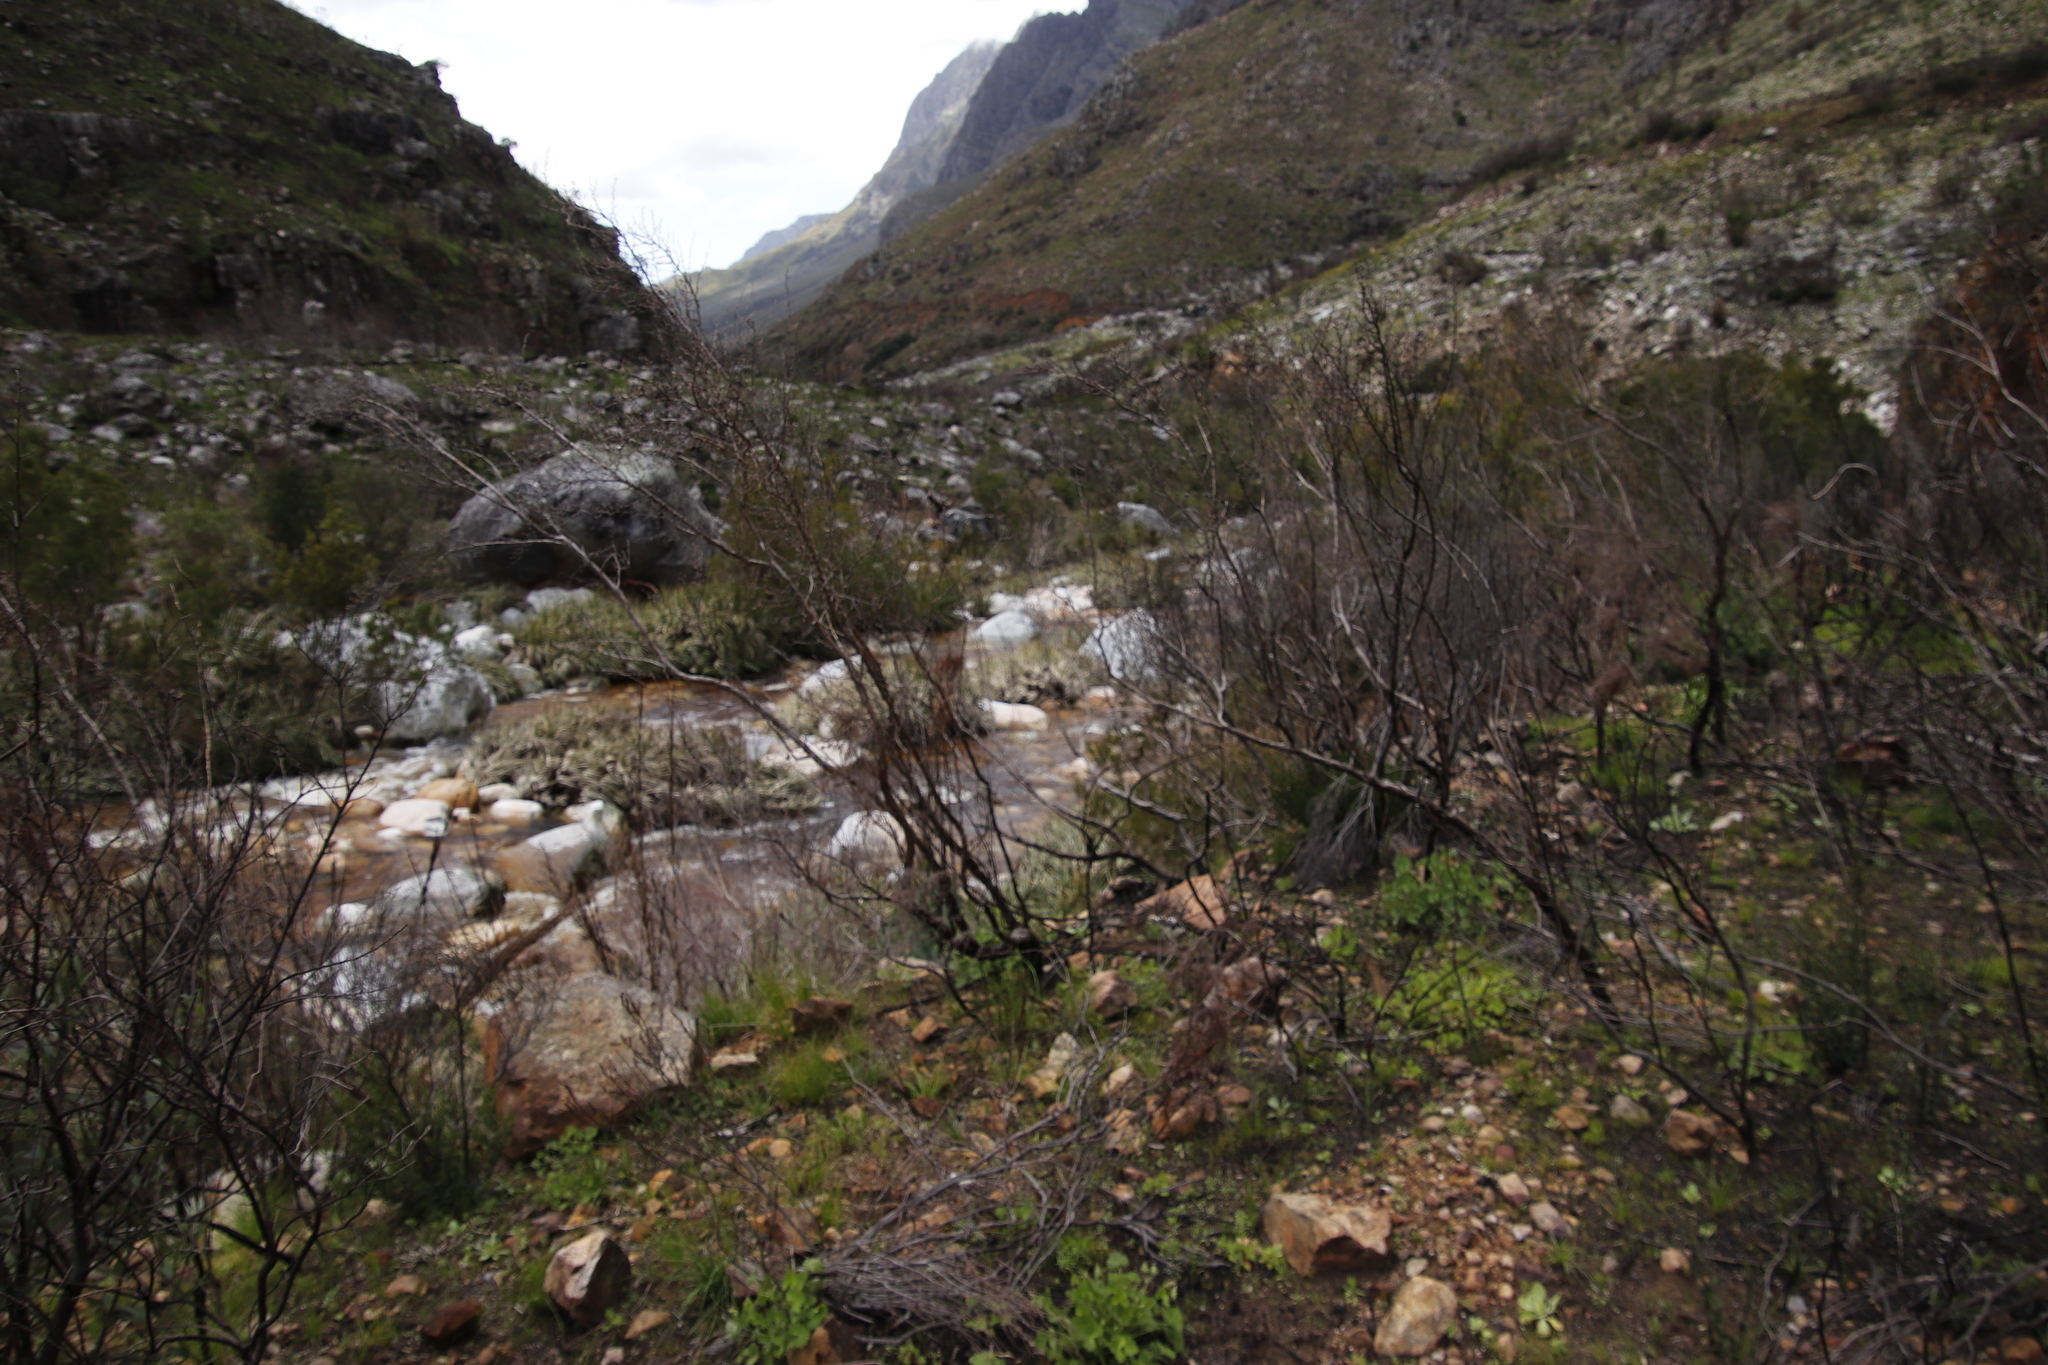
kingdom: Plantae
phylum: Tracheophyta
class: Liliopsida
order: Poales
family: Thurniaceae
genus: Prionium
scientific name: Prionium serratum
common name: Palmiet
